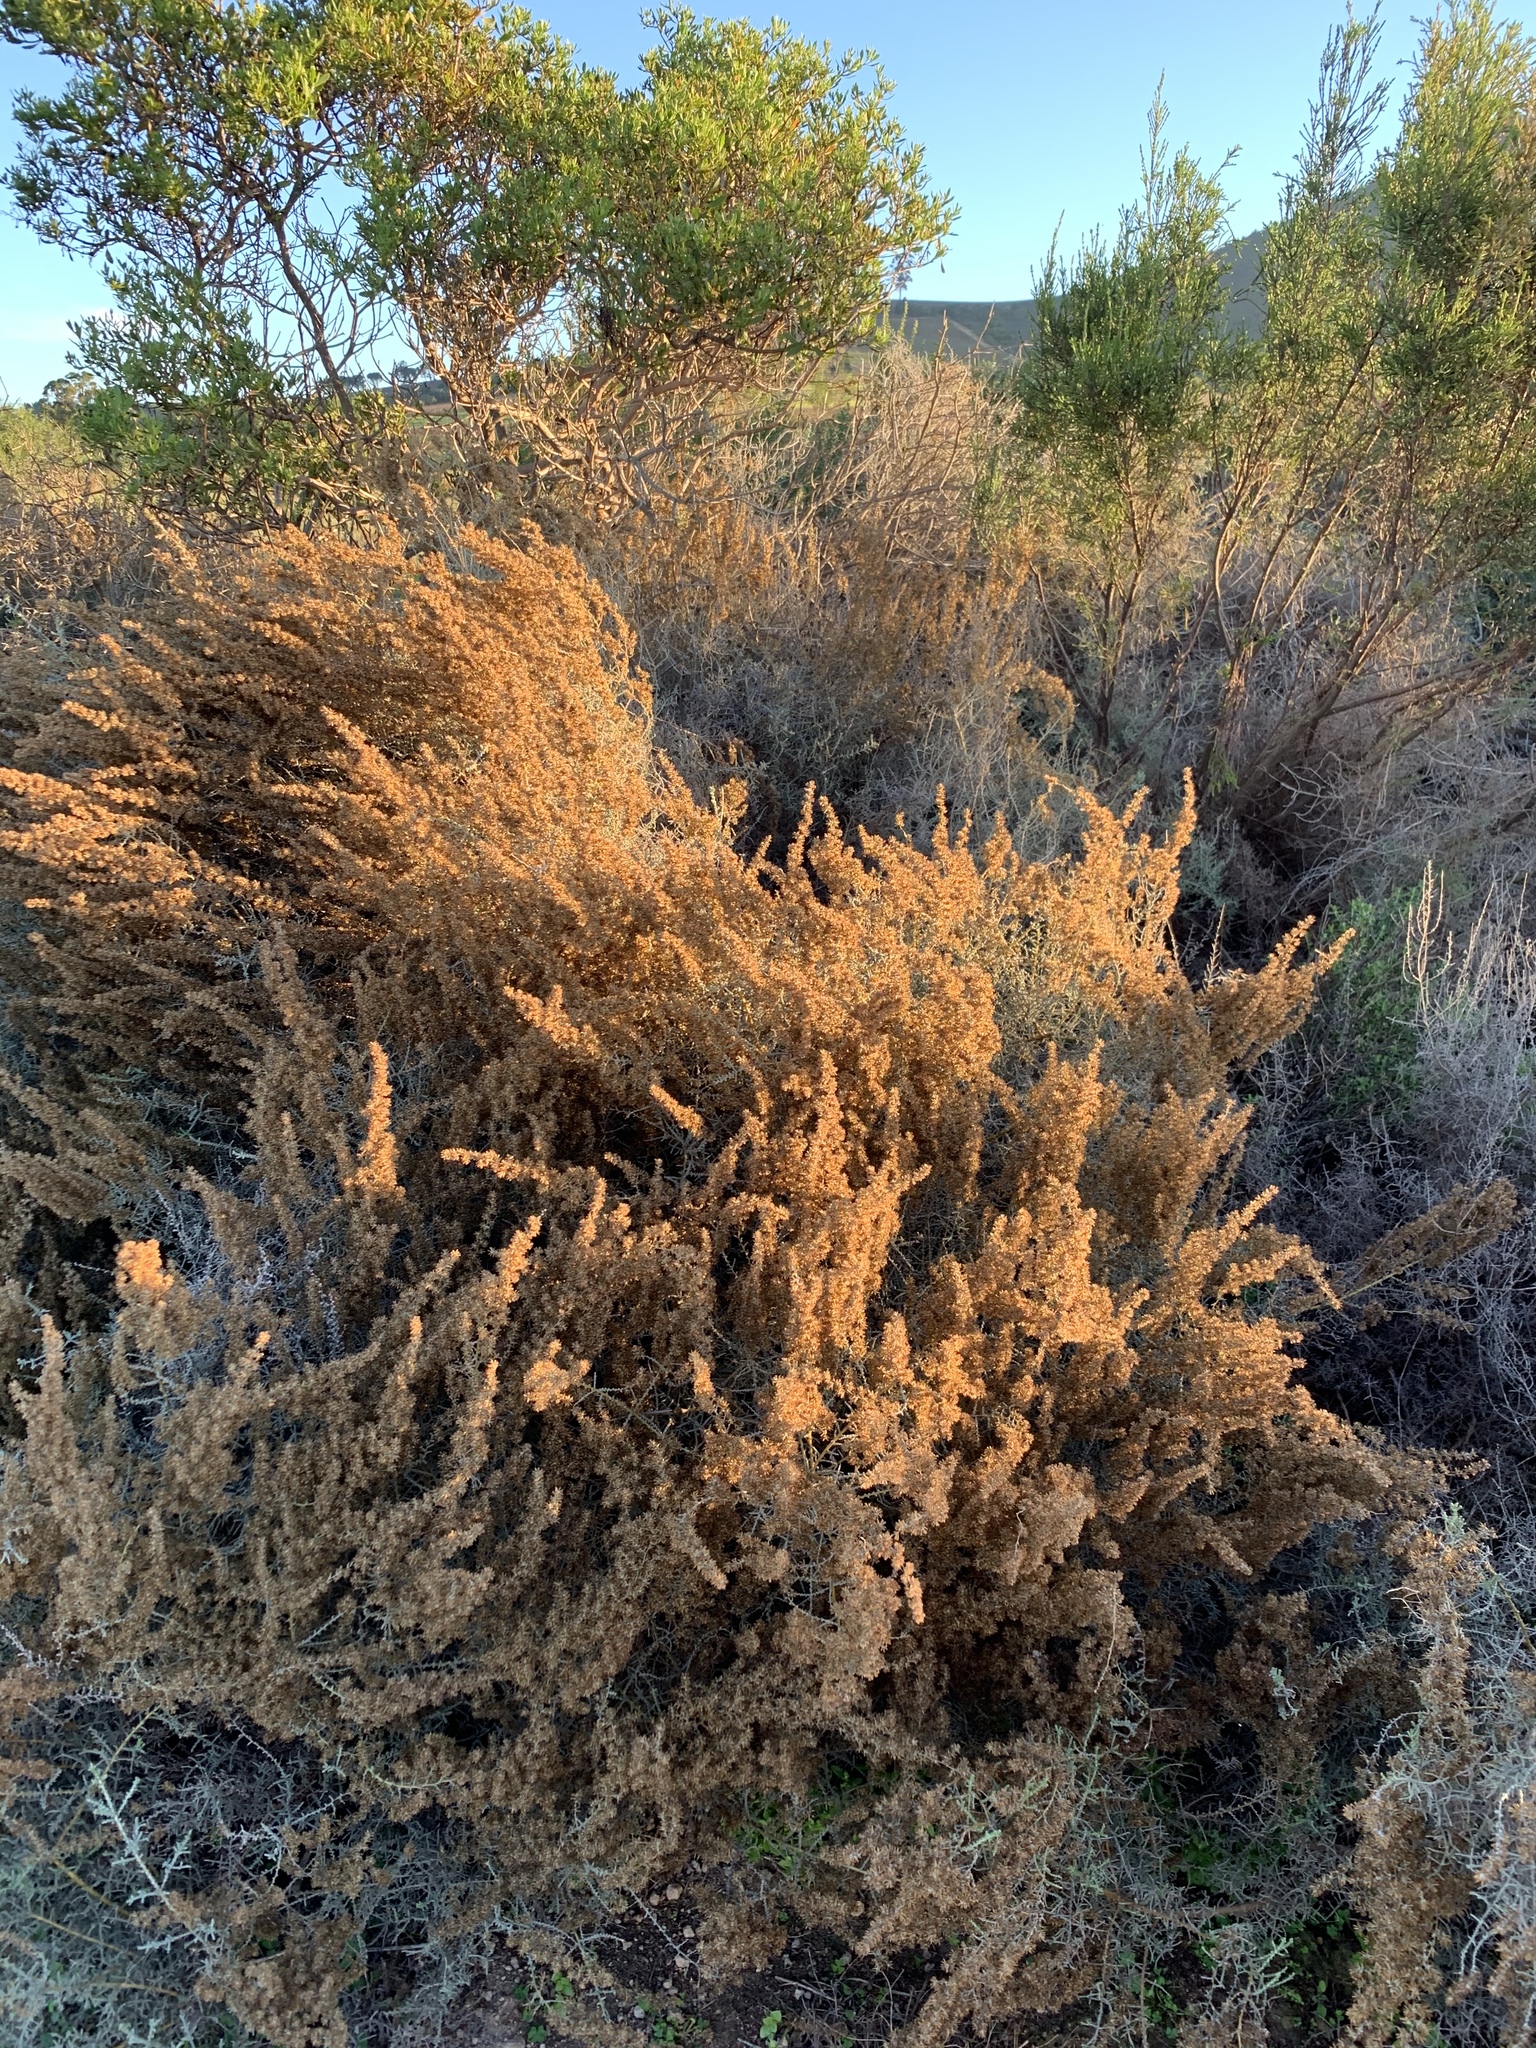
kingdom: Plantae
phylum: Tracheophyta
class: Magnoliopsida
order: Asterales
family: Asteraceae
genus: Seriphium
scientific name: Seriphium plumosum
